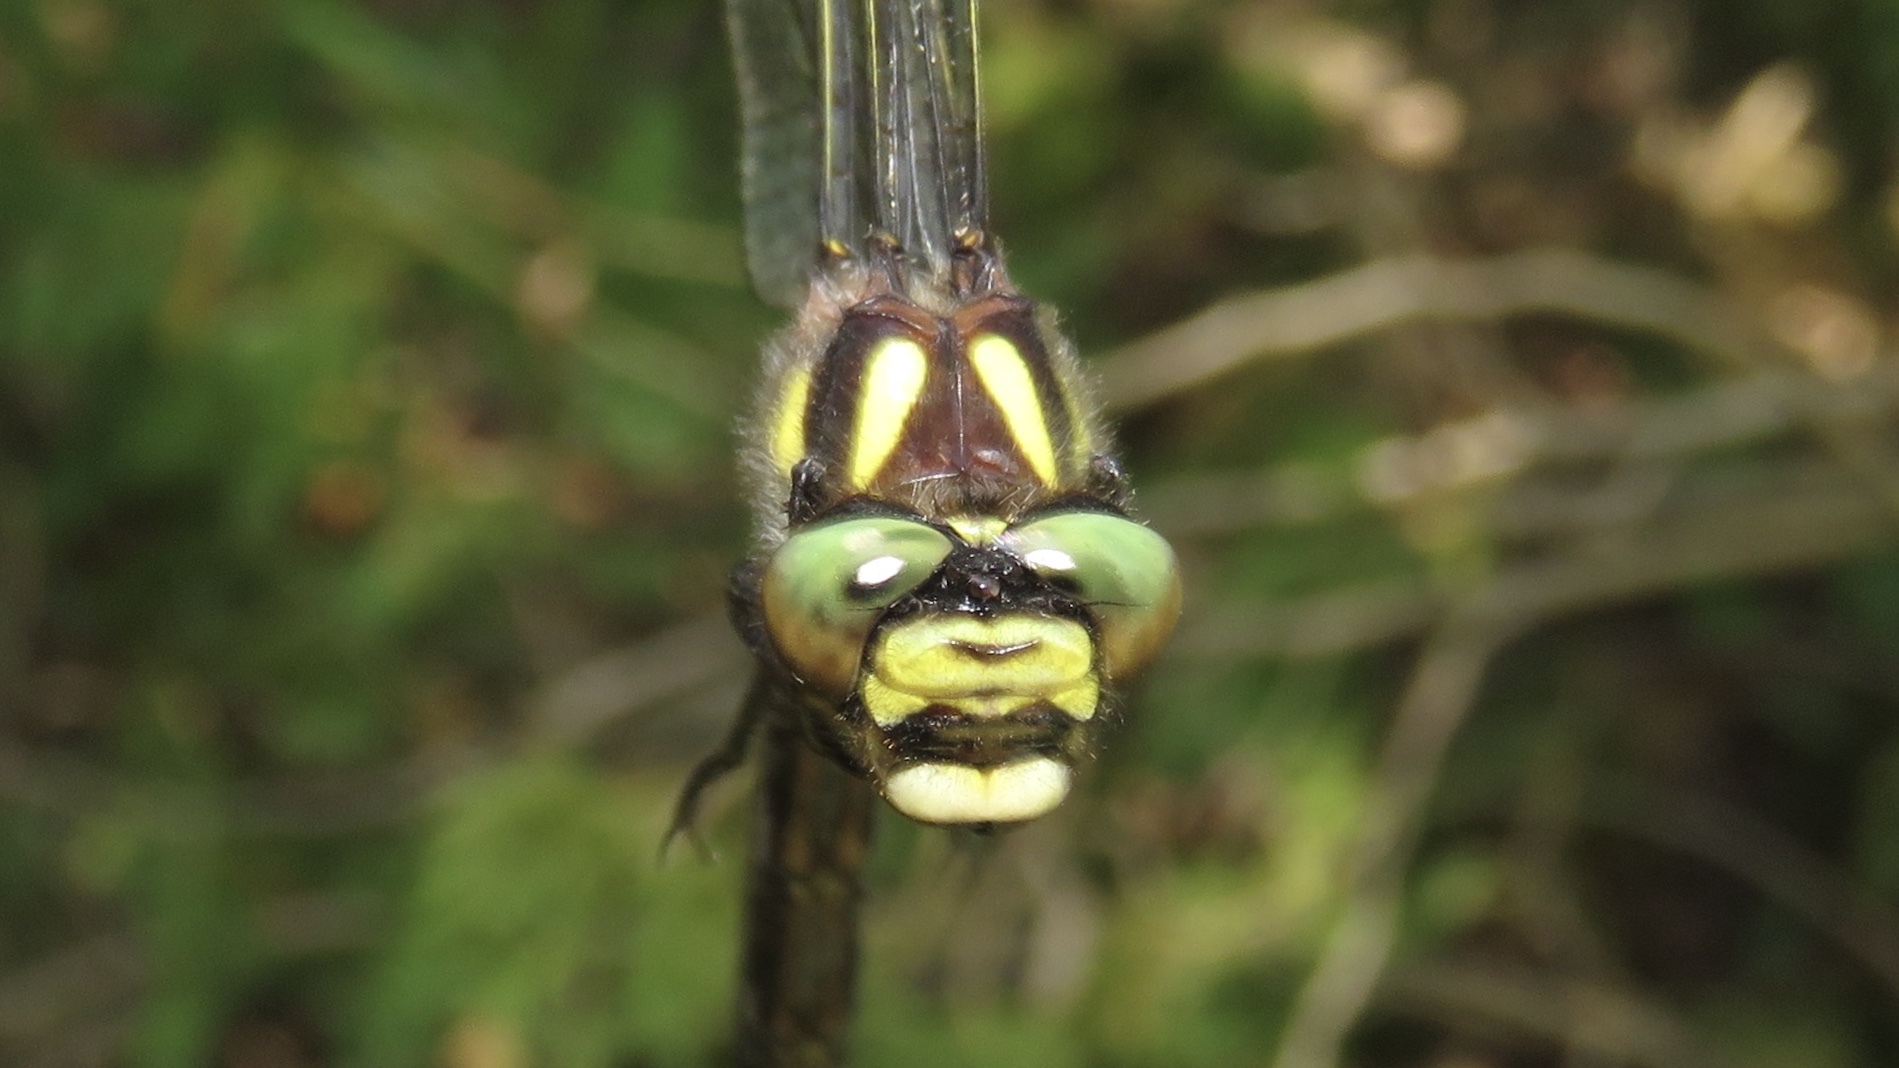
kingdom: Animalia
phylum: Arthropoda
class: Insecta
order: Odonata
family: Cordulegastridae
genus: Cordulegaster
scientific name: Cordulegaster diastatops
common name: Delta-spotted spiketail
